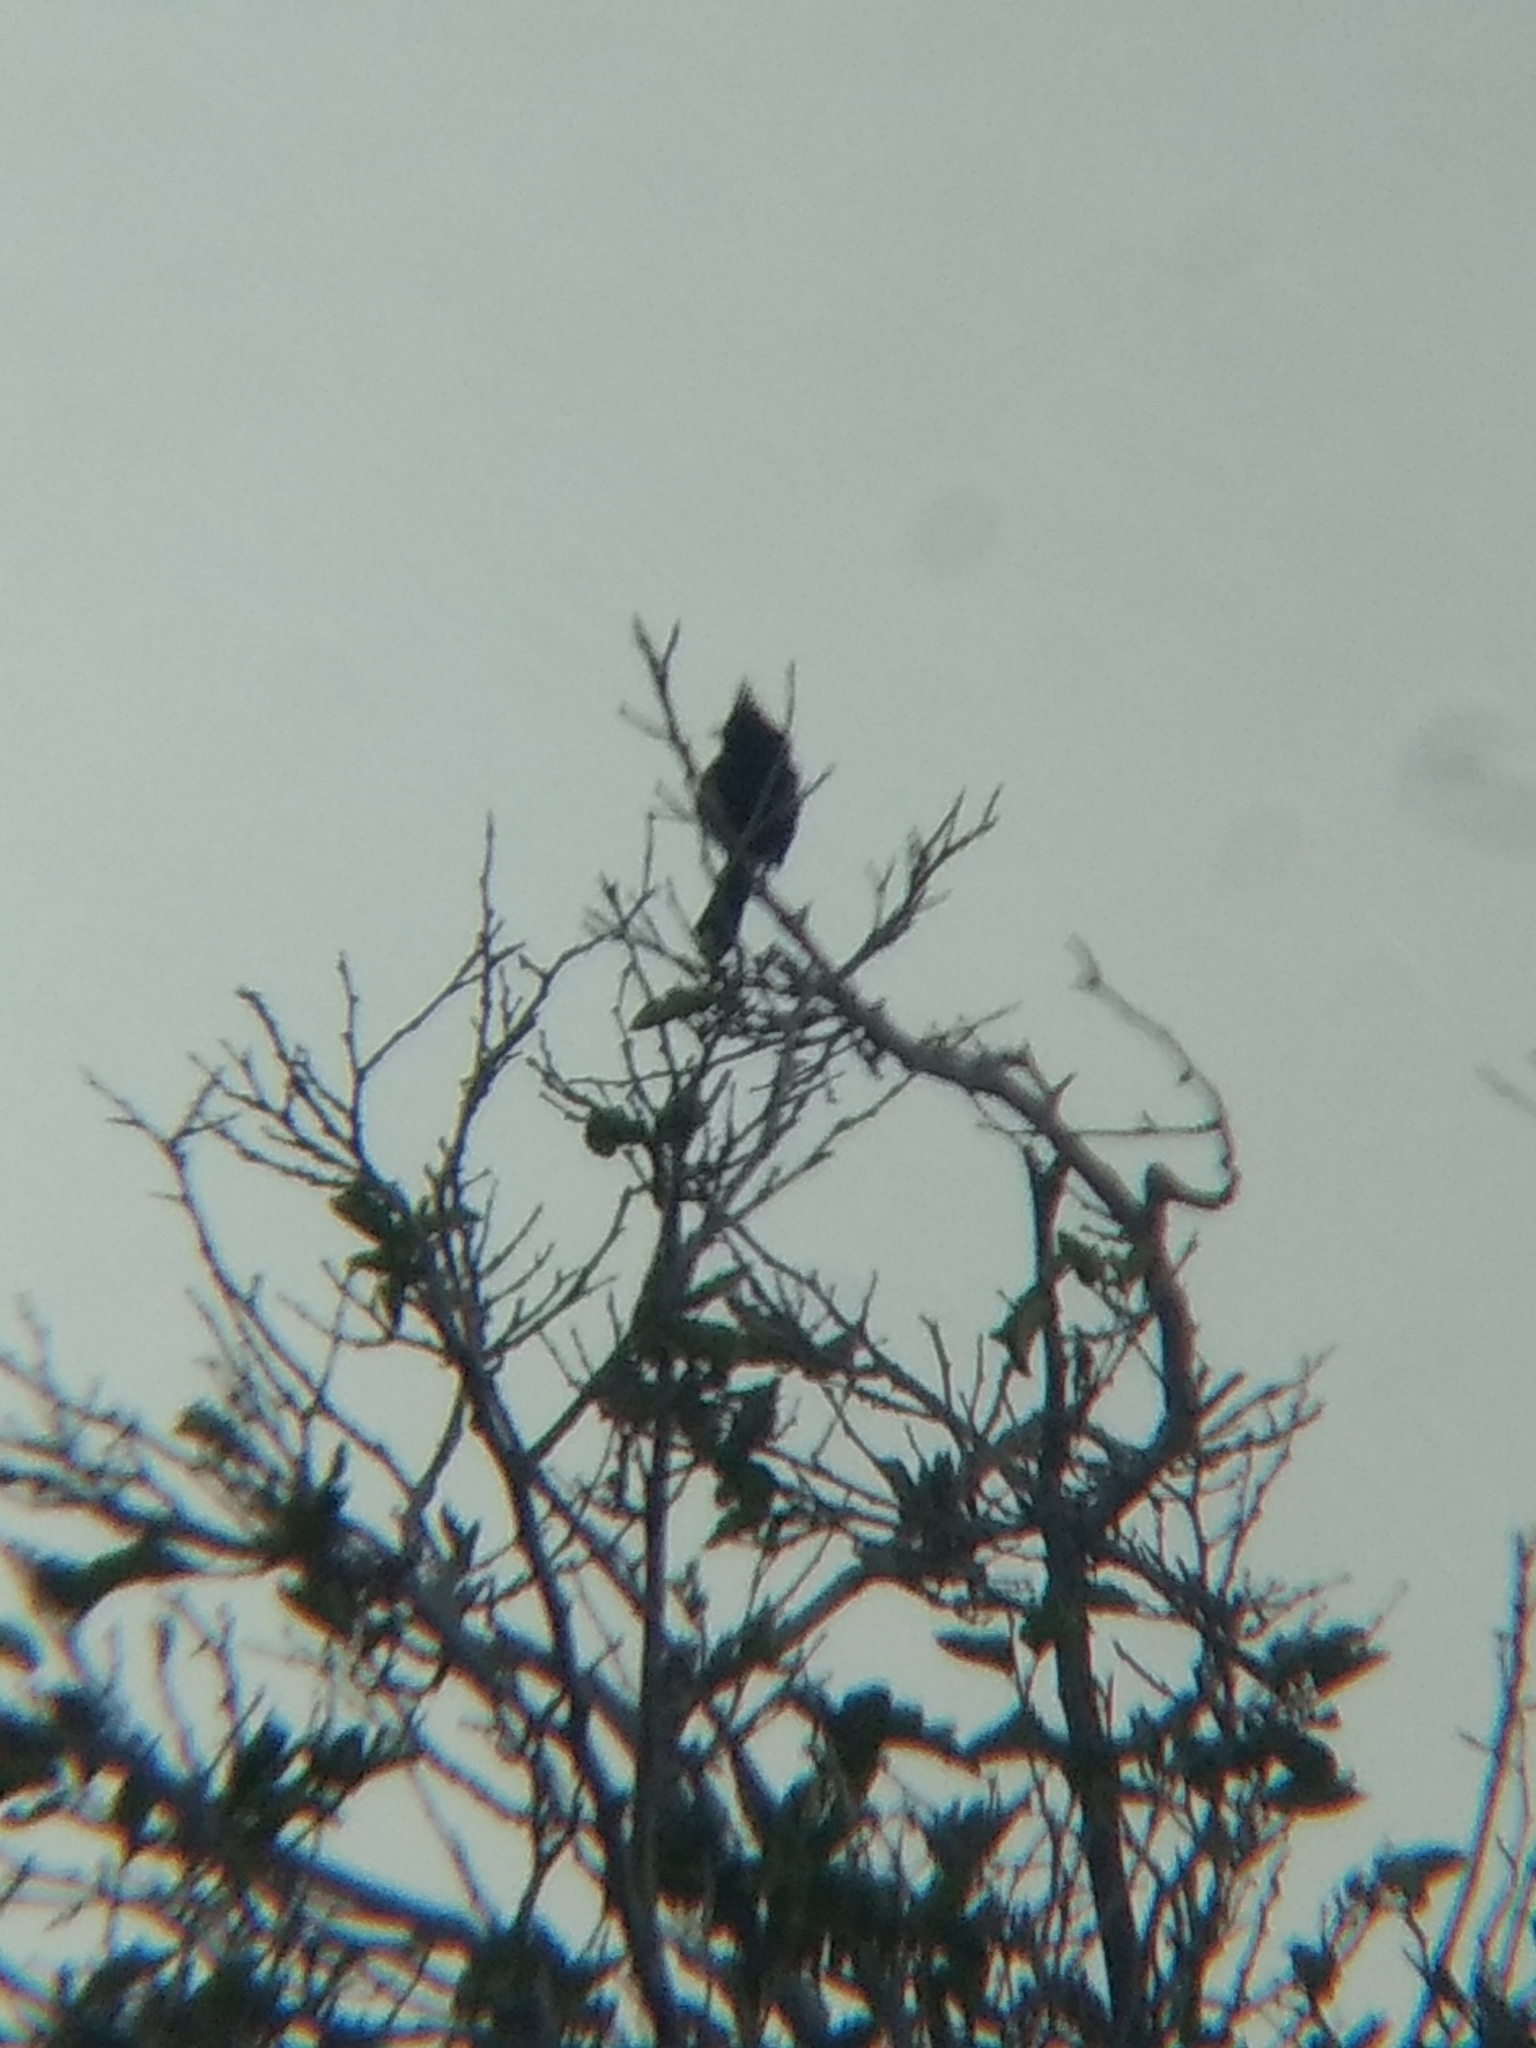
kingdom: Animalia
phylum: Chordata
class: Aves
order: Passeriformes
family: Ptilogonatidae
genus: Phainopepla
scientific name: Phainopepla nitens
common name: Phainopepla
